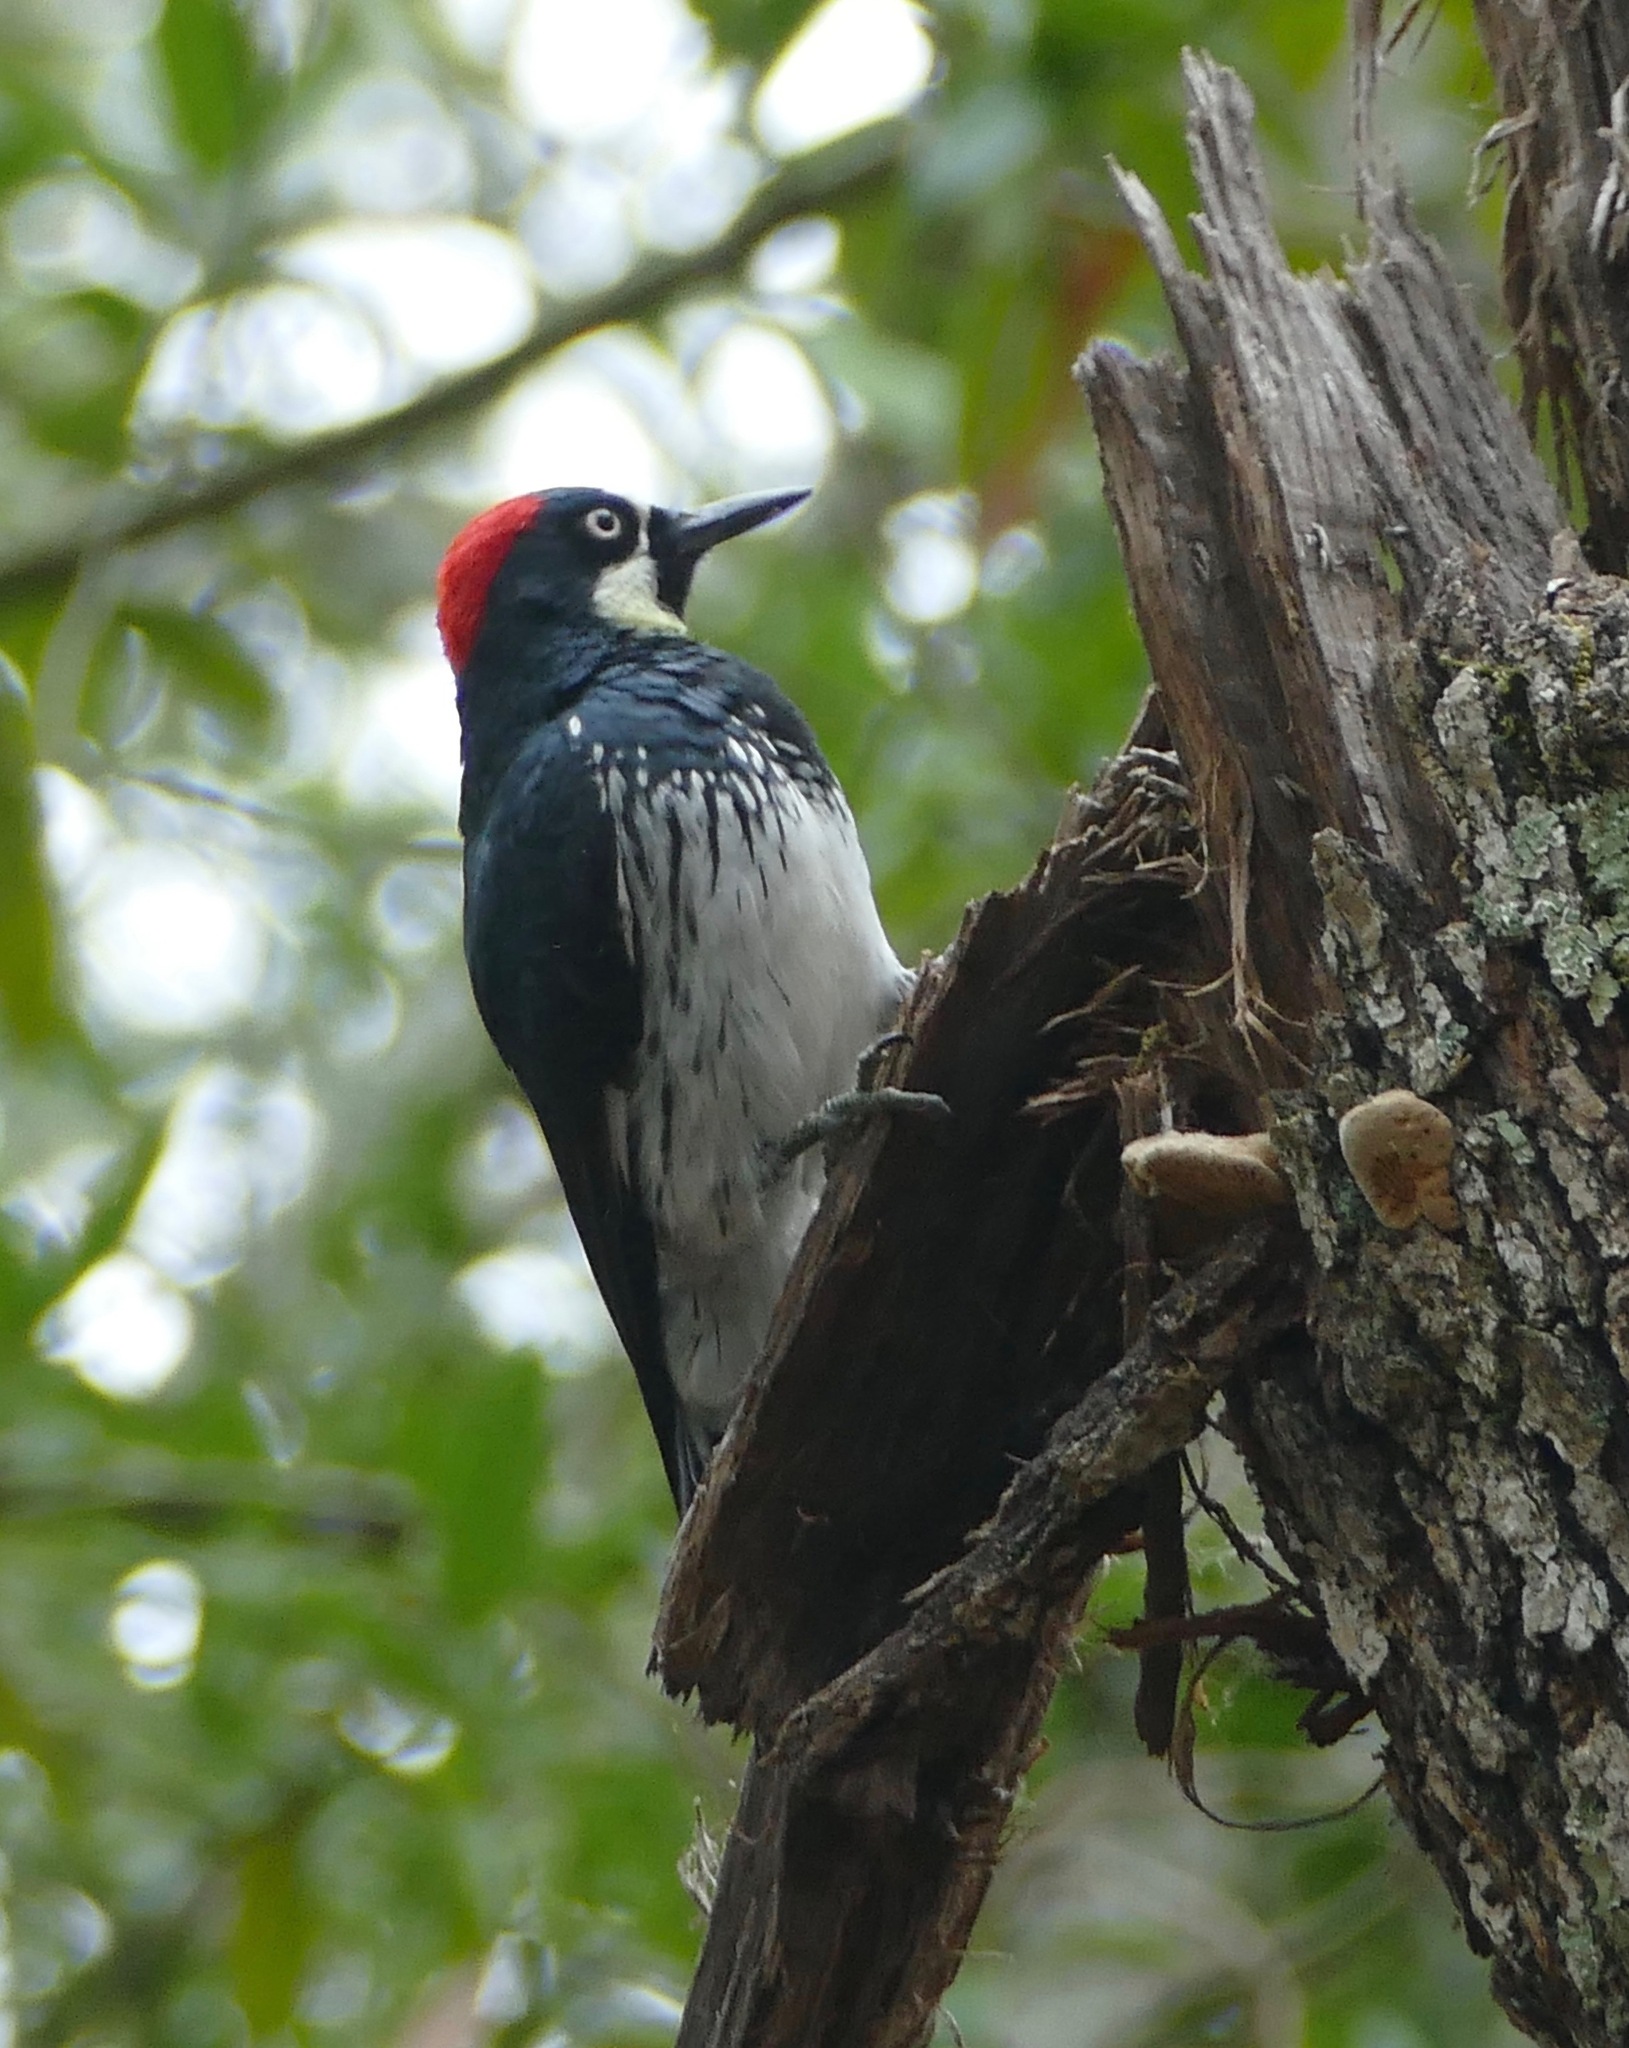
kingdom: Animalia
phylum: Chordata
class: Aves
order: Piciformes
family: Picidae
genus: Melanerpes
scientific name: Melanerpes formicivorus
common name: Acorn woodpecker
